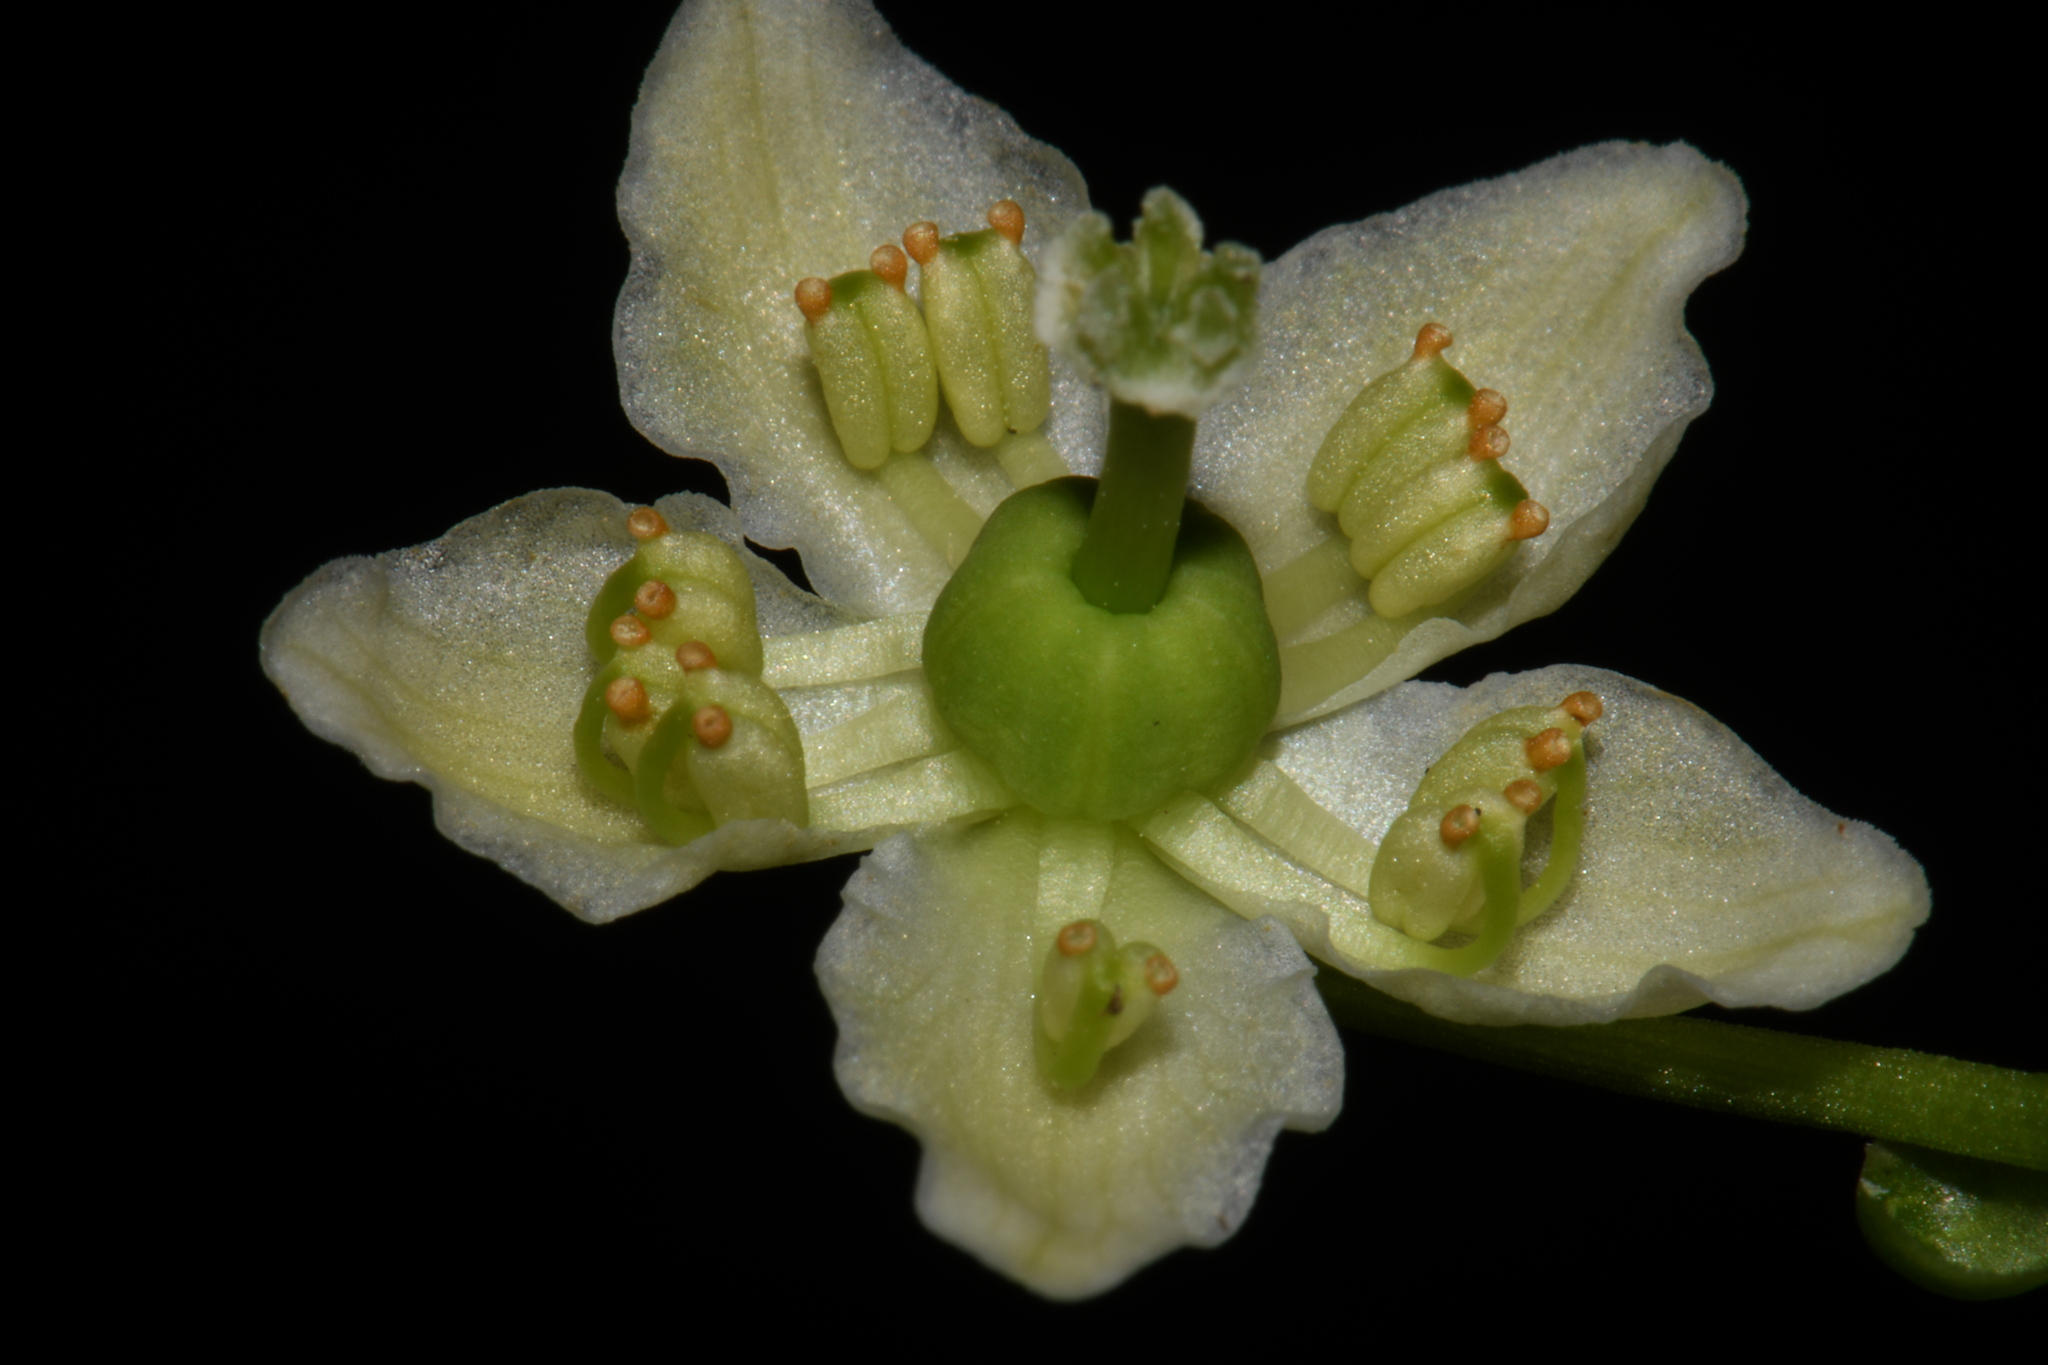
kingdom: Plantae
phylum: Tracheophyta
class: Magnoliopsida
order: Ericales
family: Ericaceae
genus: Moneses
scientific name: Moneses uniflora
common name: One-flowered wintergreen
